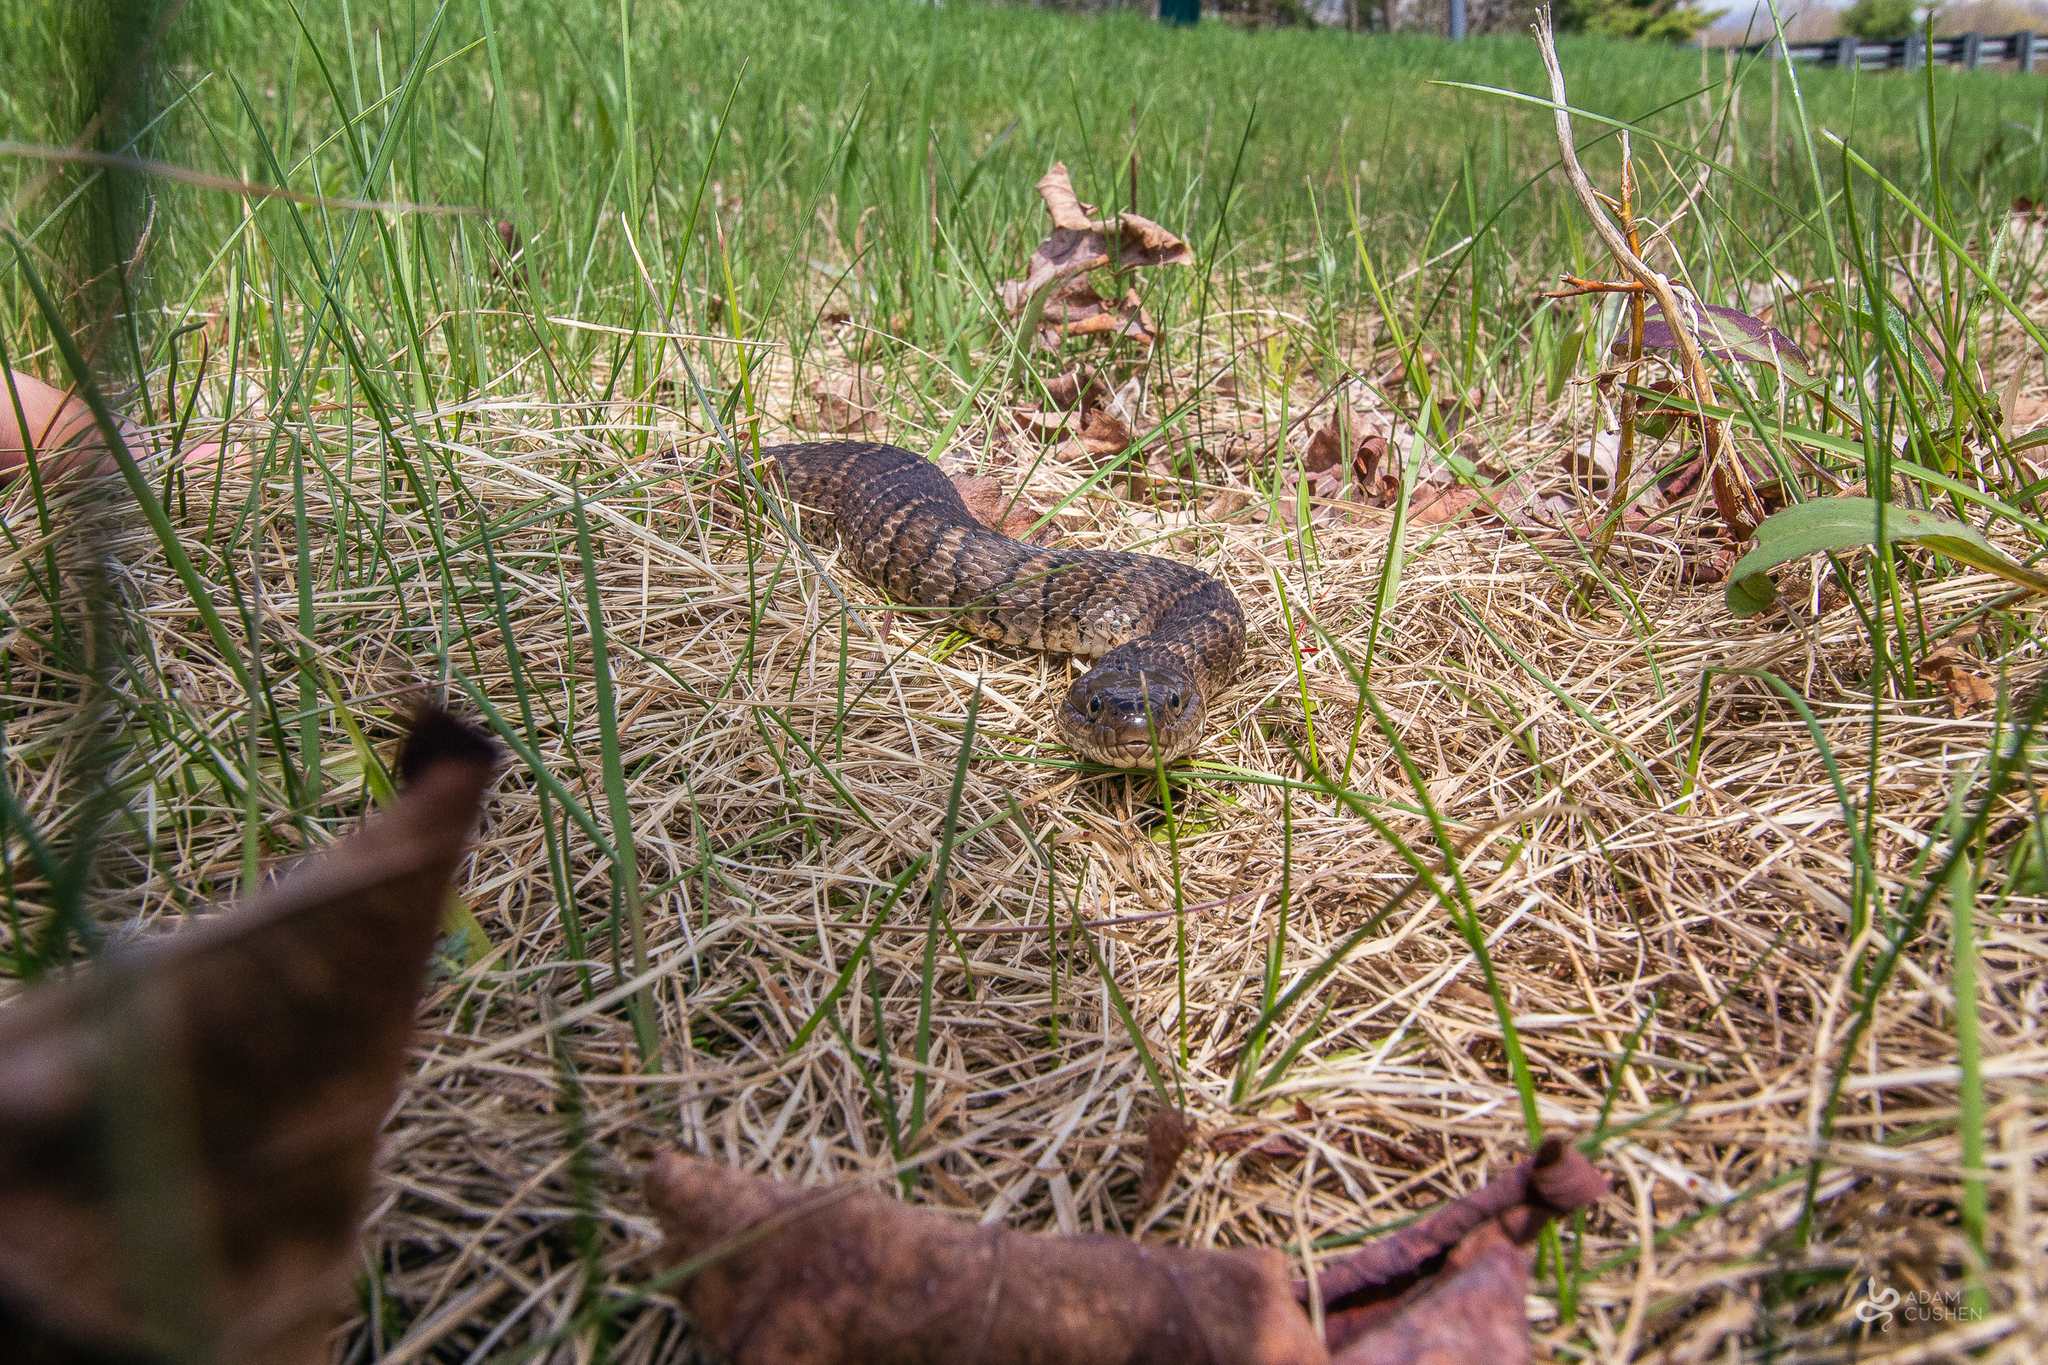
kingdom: Animalia
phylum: Chordata
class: Squamata
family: Colubridae
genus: Nerodia
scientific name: Nerodia sipedon
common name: Northern water snake
